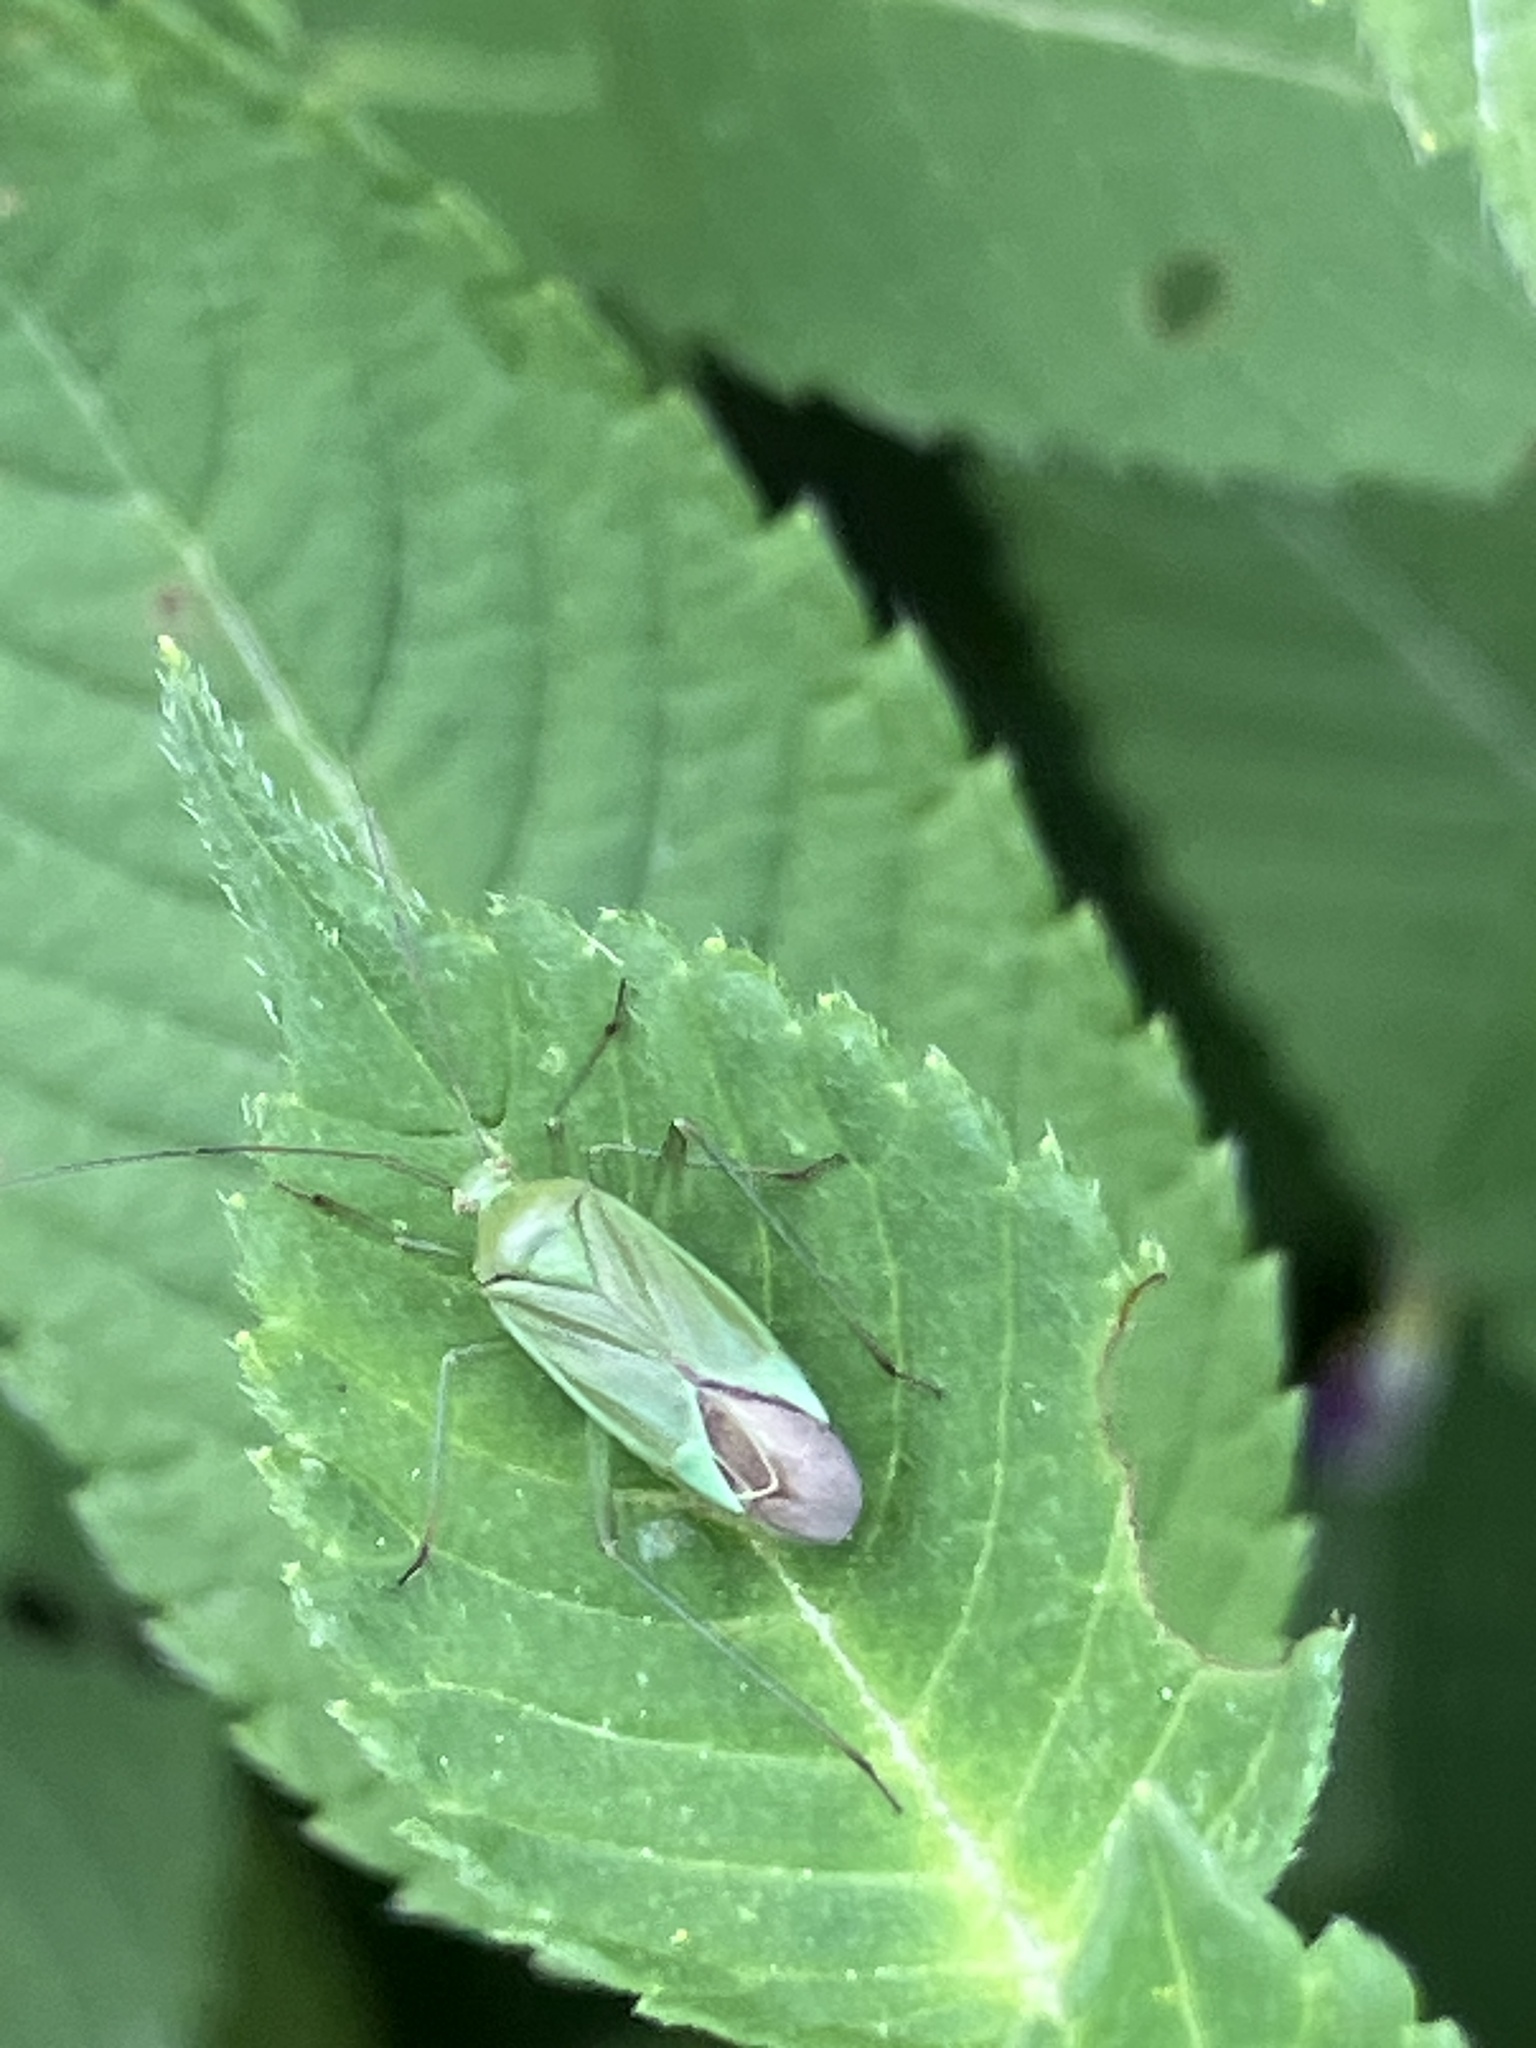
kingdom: Animalia
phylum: Arthropoda
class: Insecta
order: Hemiptera
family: Miridae
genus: Calocoris
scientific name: Calocoris affinis
